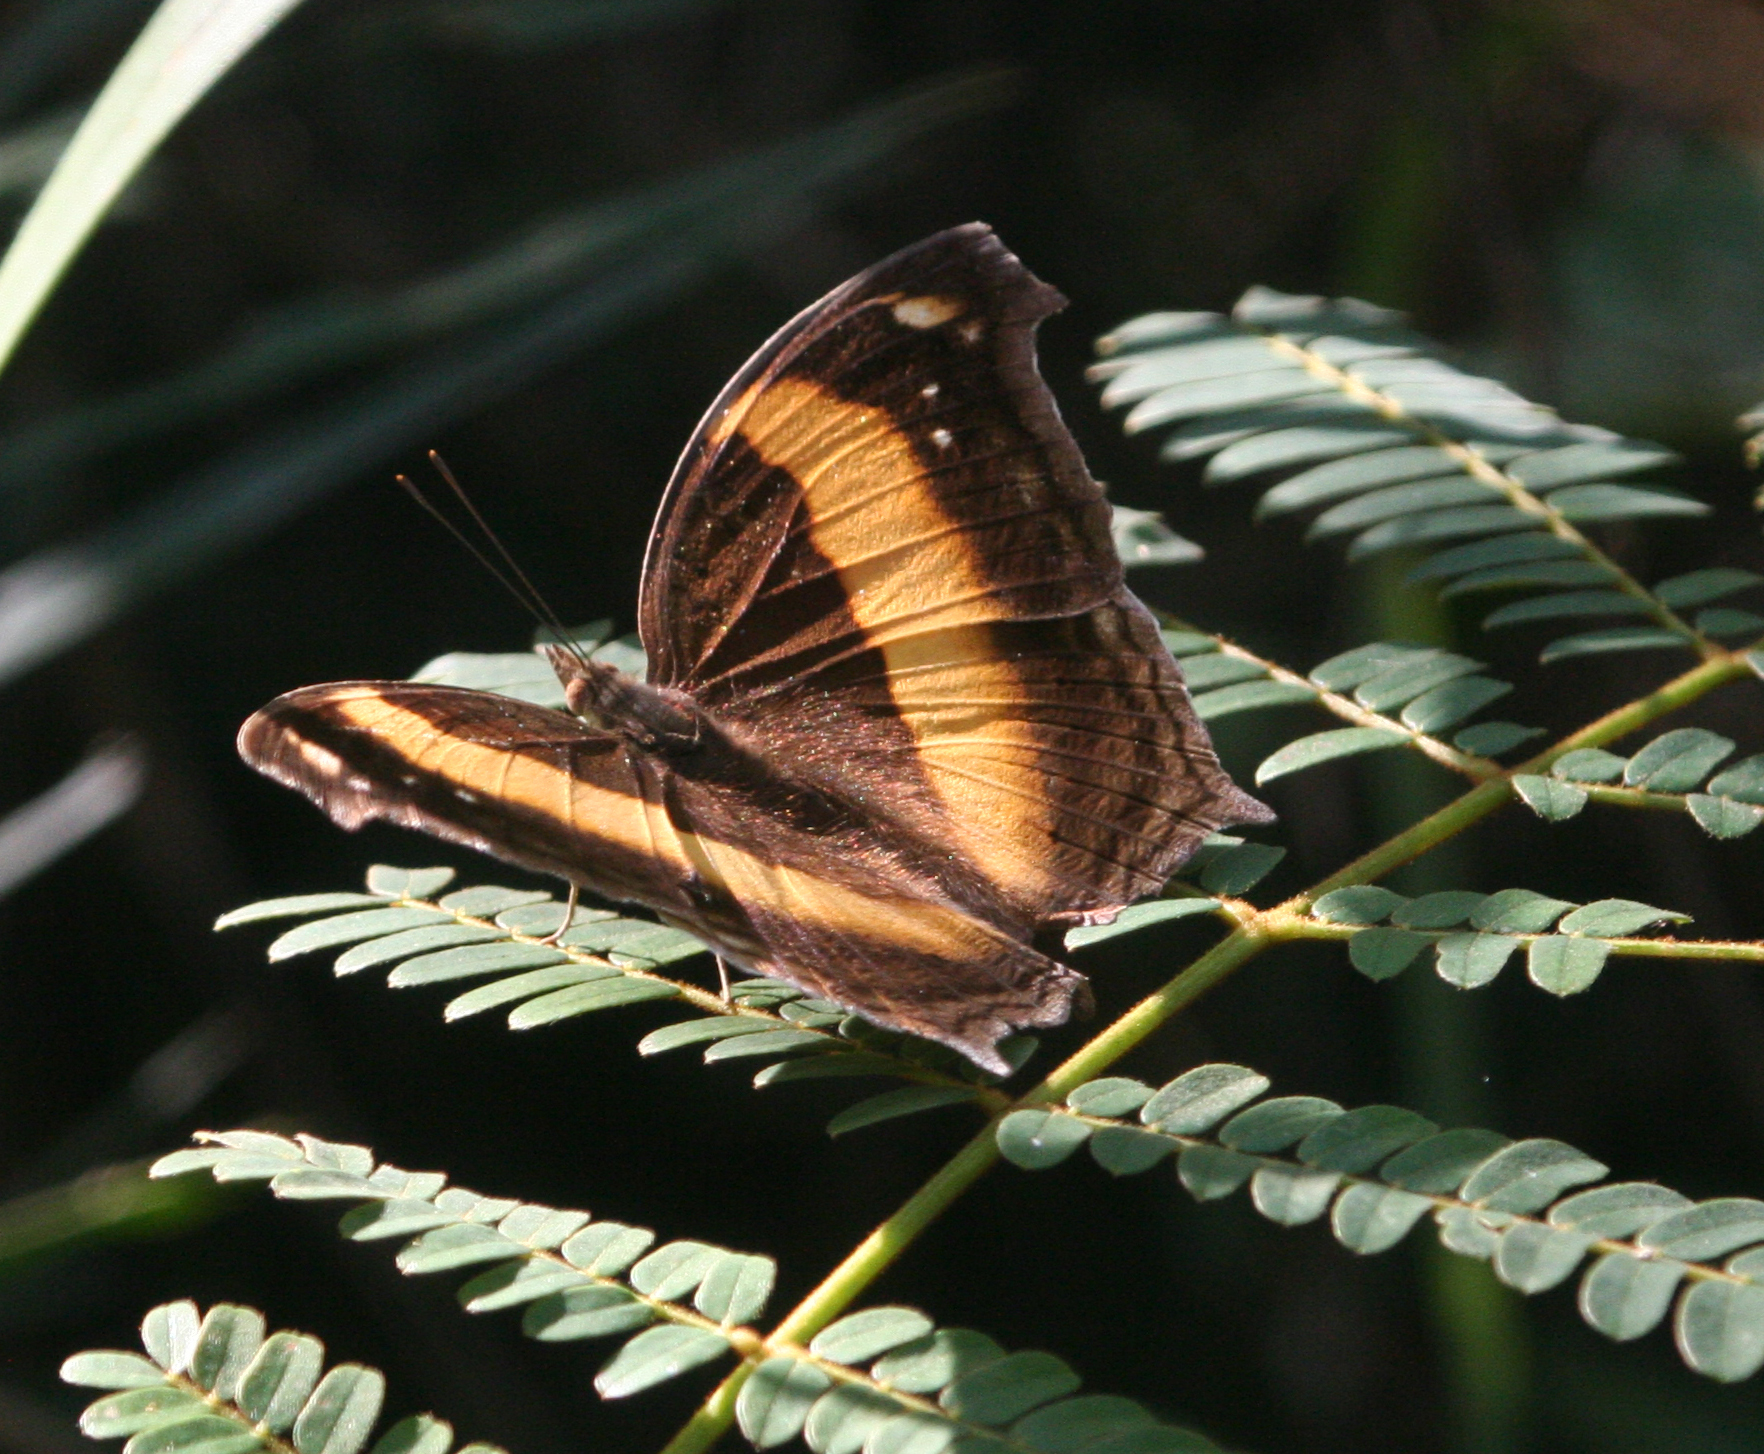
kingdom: Animalia
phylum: Arthropoda
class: Insecta
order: Lepidoptera
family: Nymphalidae
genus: Yoma
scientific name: Yoma sabina
